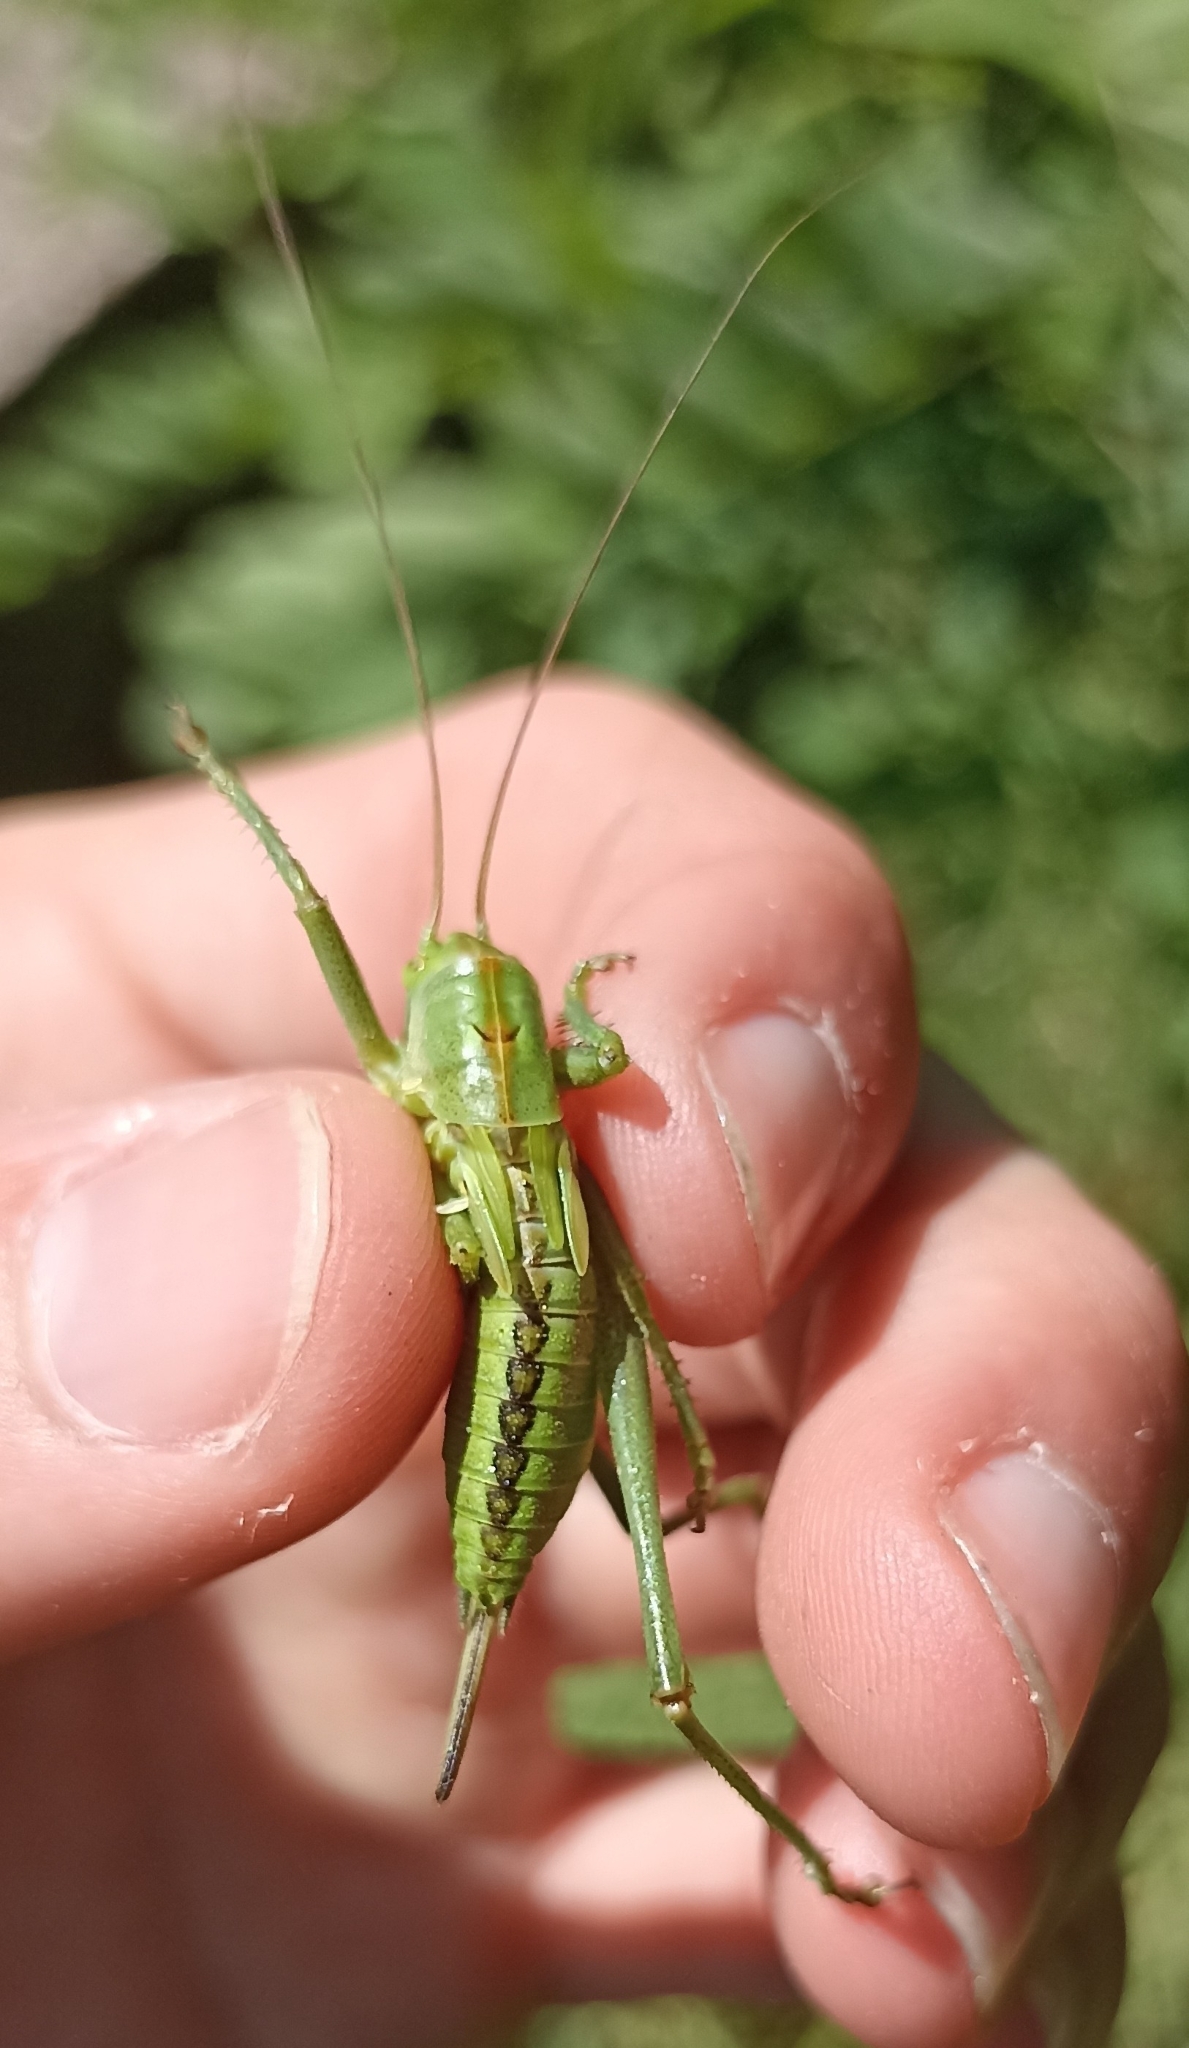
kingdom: Animalia
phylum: Arthropoda
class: Insecta
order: Orthoptera
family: Tettigoniidae
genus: Tettigonia
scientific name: Tettigonia viridissima
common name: Great green bush-cricket
